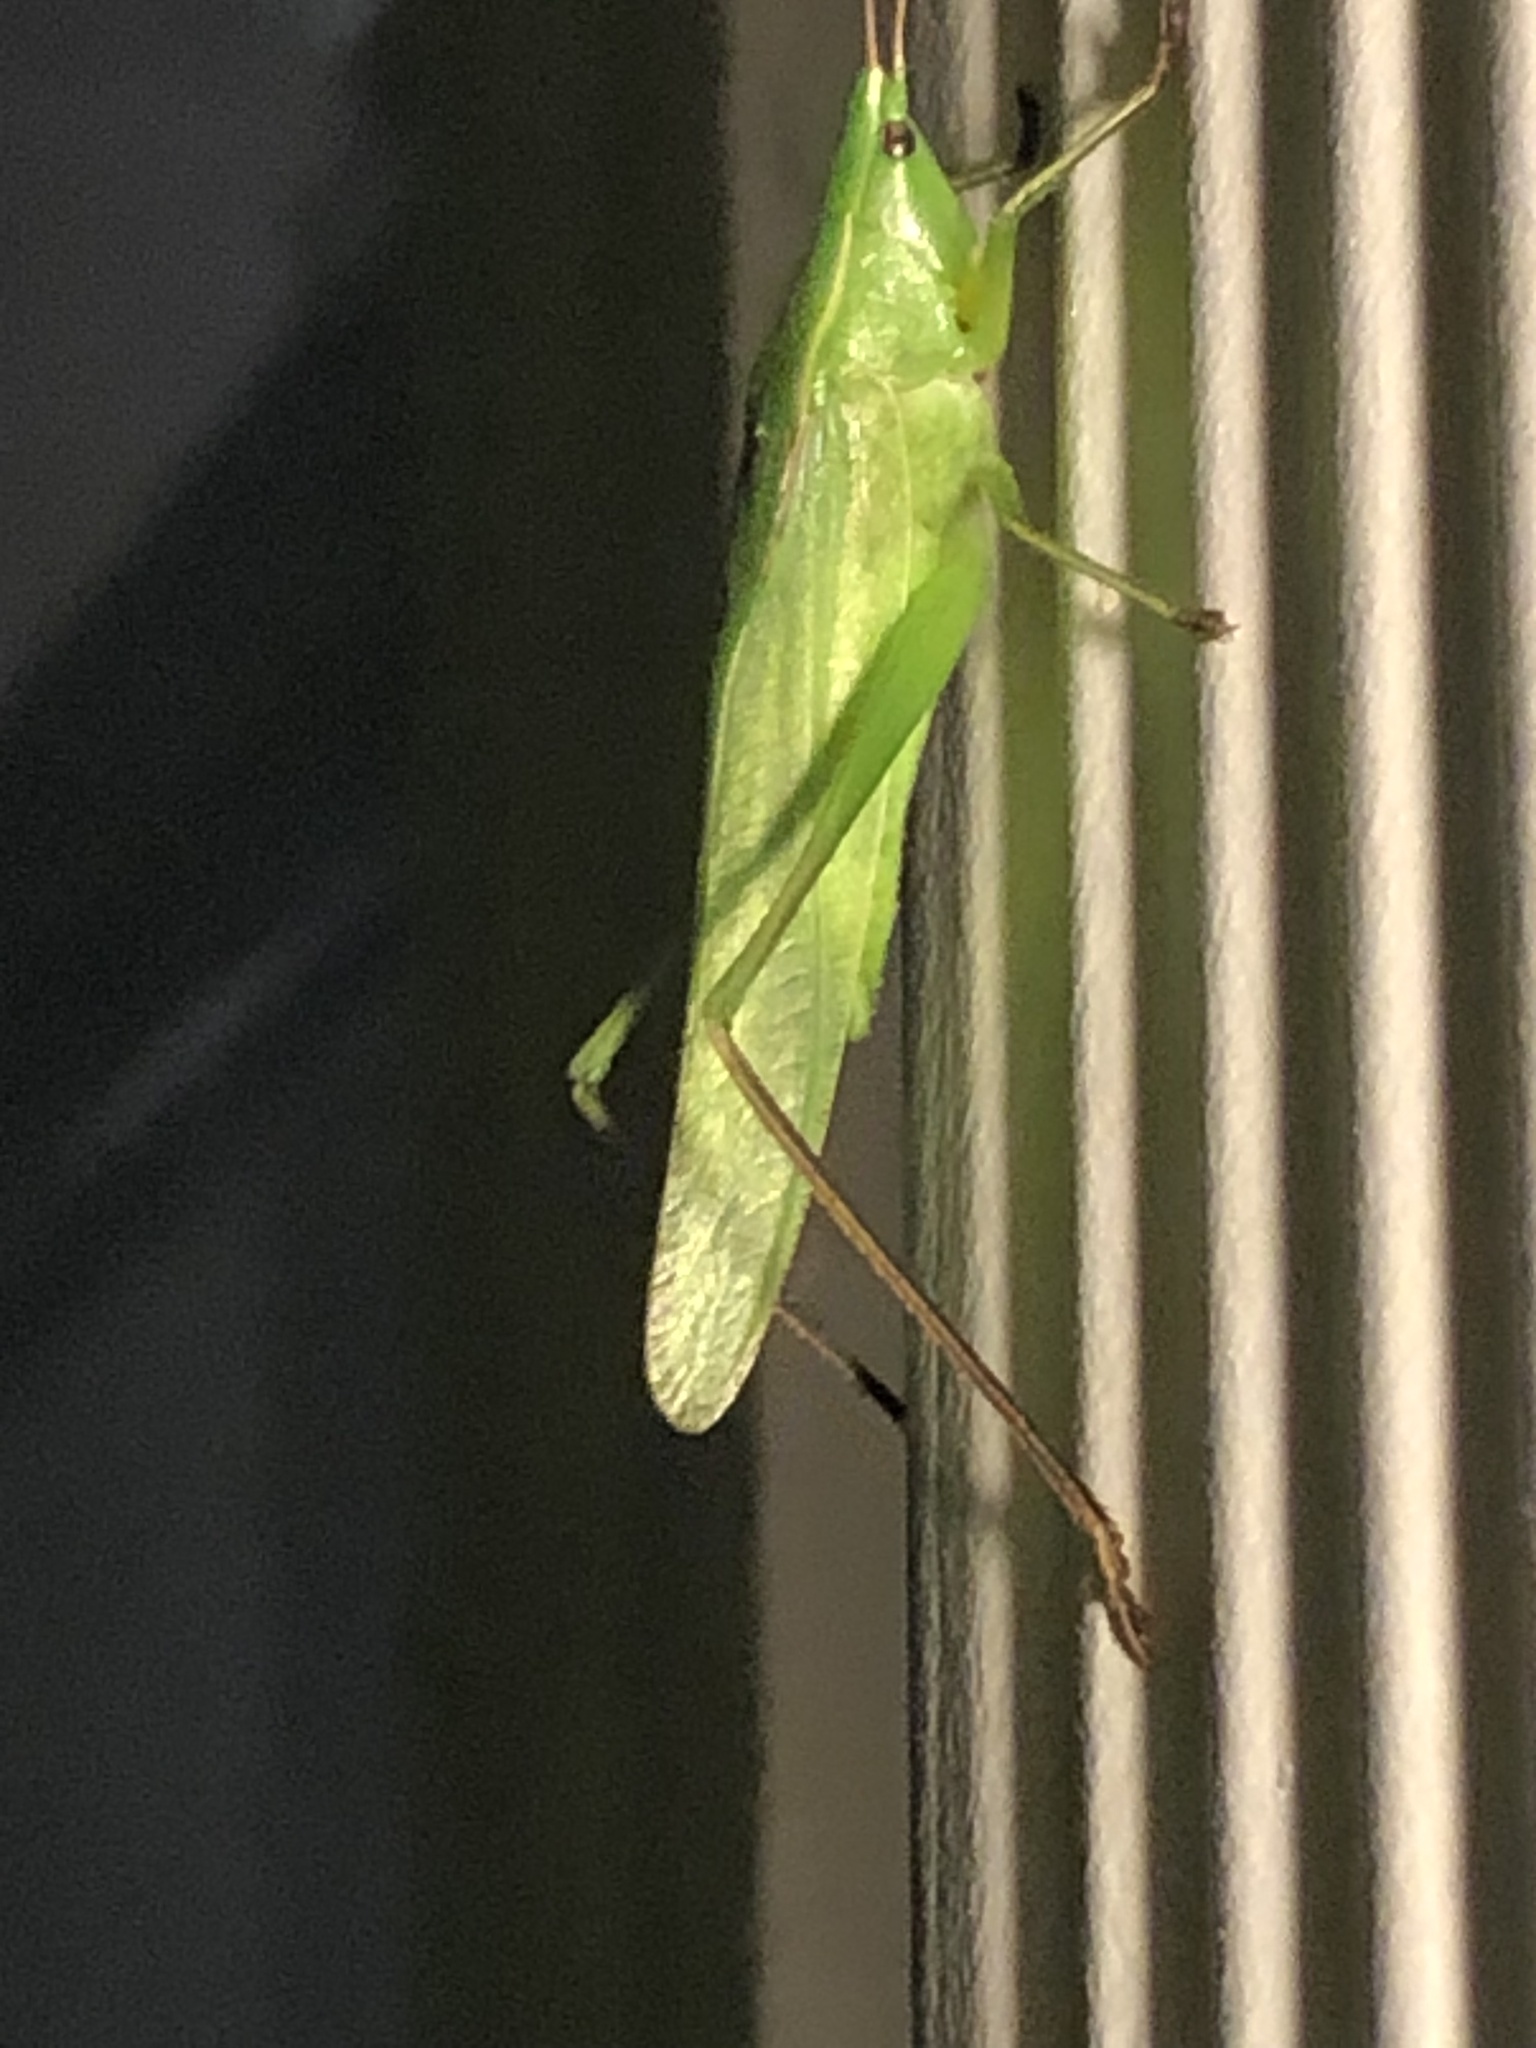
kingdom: Animalia
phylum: Arthropoda
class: Insecta
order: Orthoptera
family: Tettigoniidae
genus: Neoconocephalus
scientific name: Neoconocephalus retusus
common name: Round-tipped conehead
